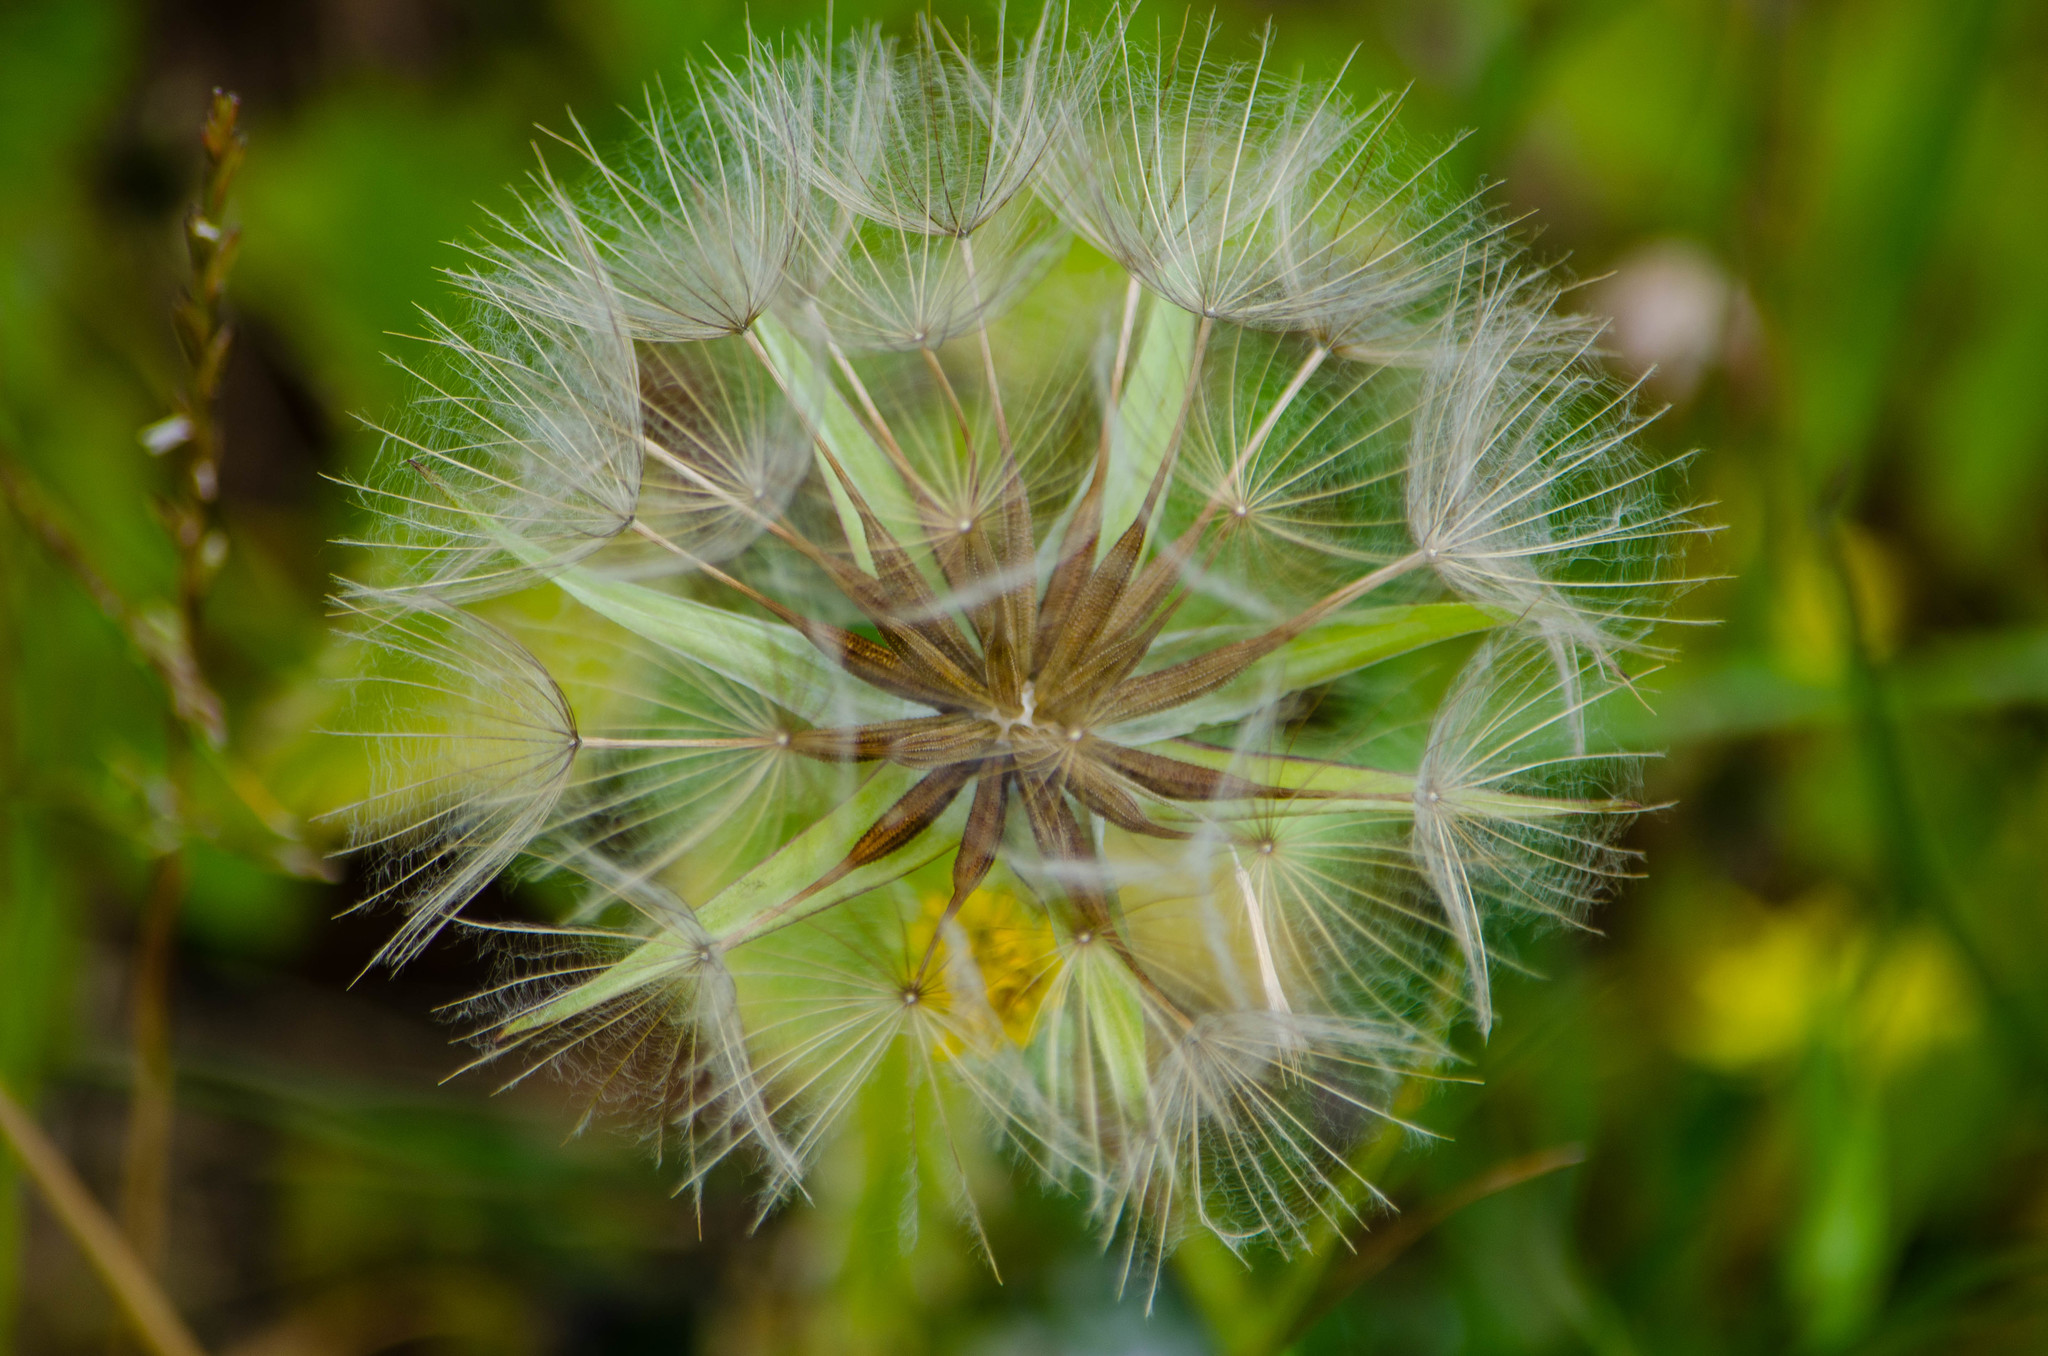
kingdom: Plantae
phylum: Tracheophyta
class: Magnoliopsida
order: Asterales
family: Asteraceae
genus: Tragopogon
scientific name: Tragopogon pratensis
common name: Goat's-beard
